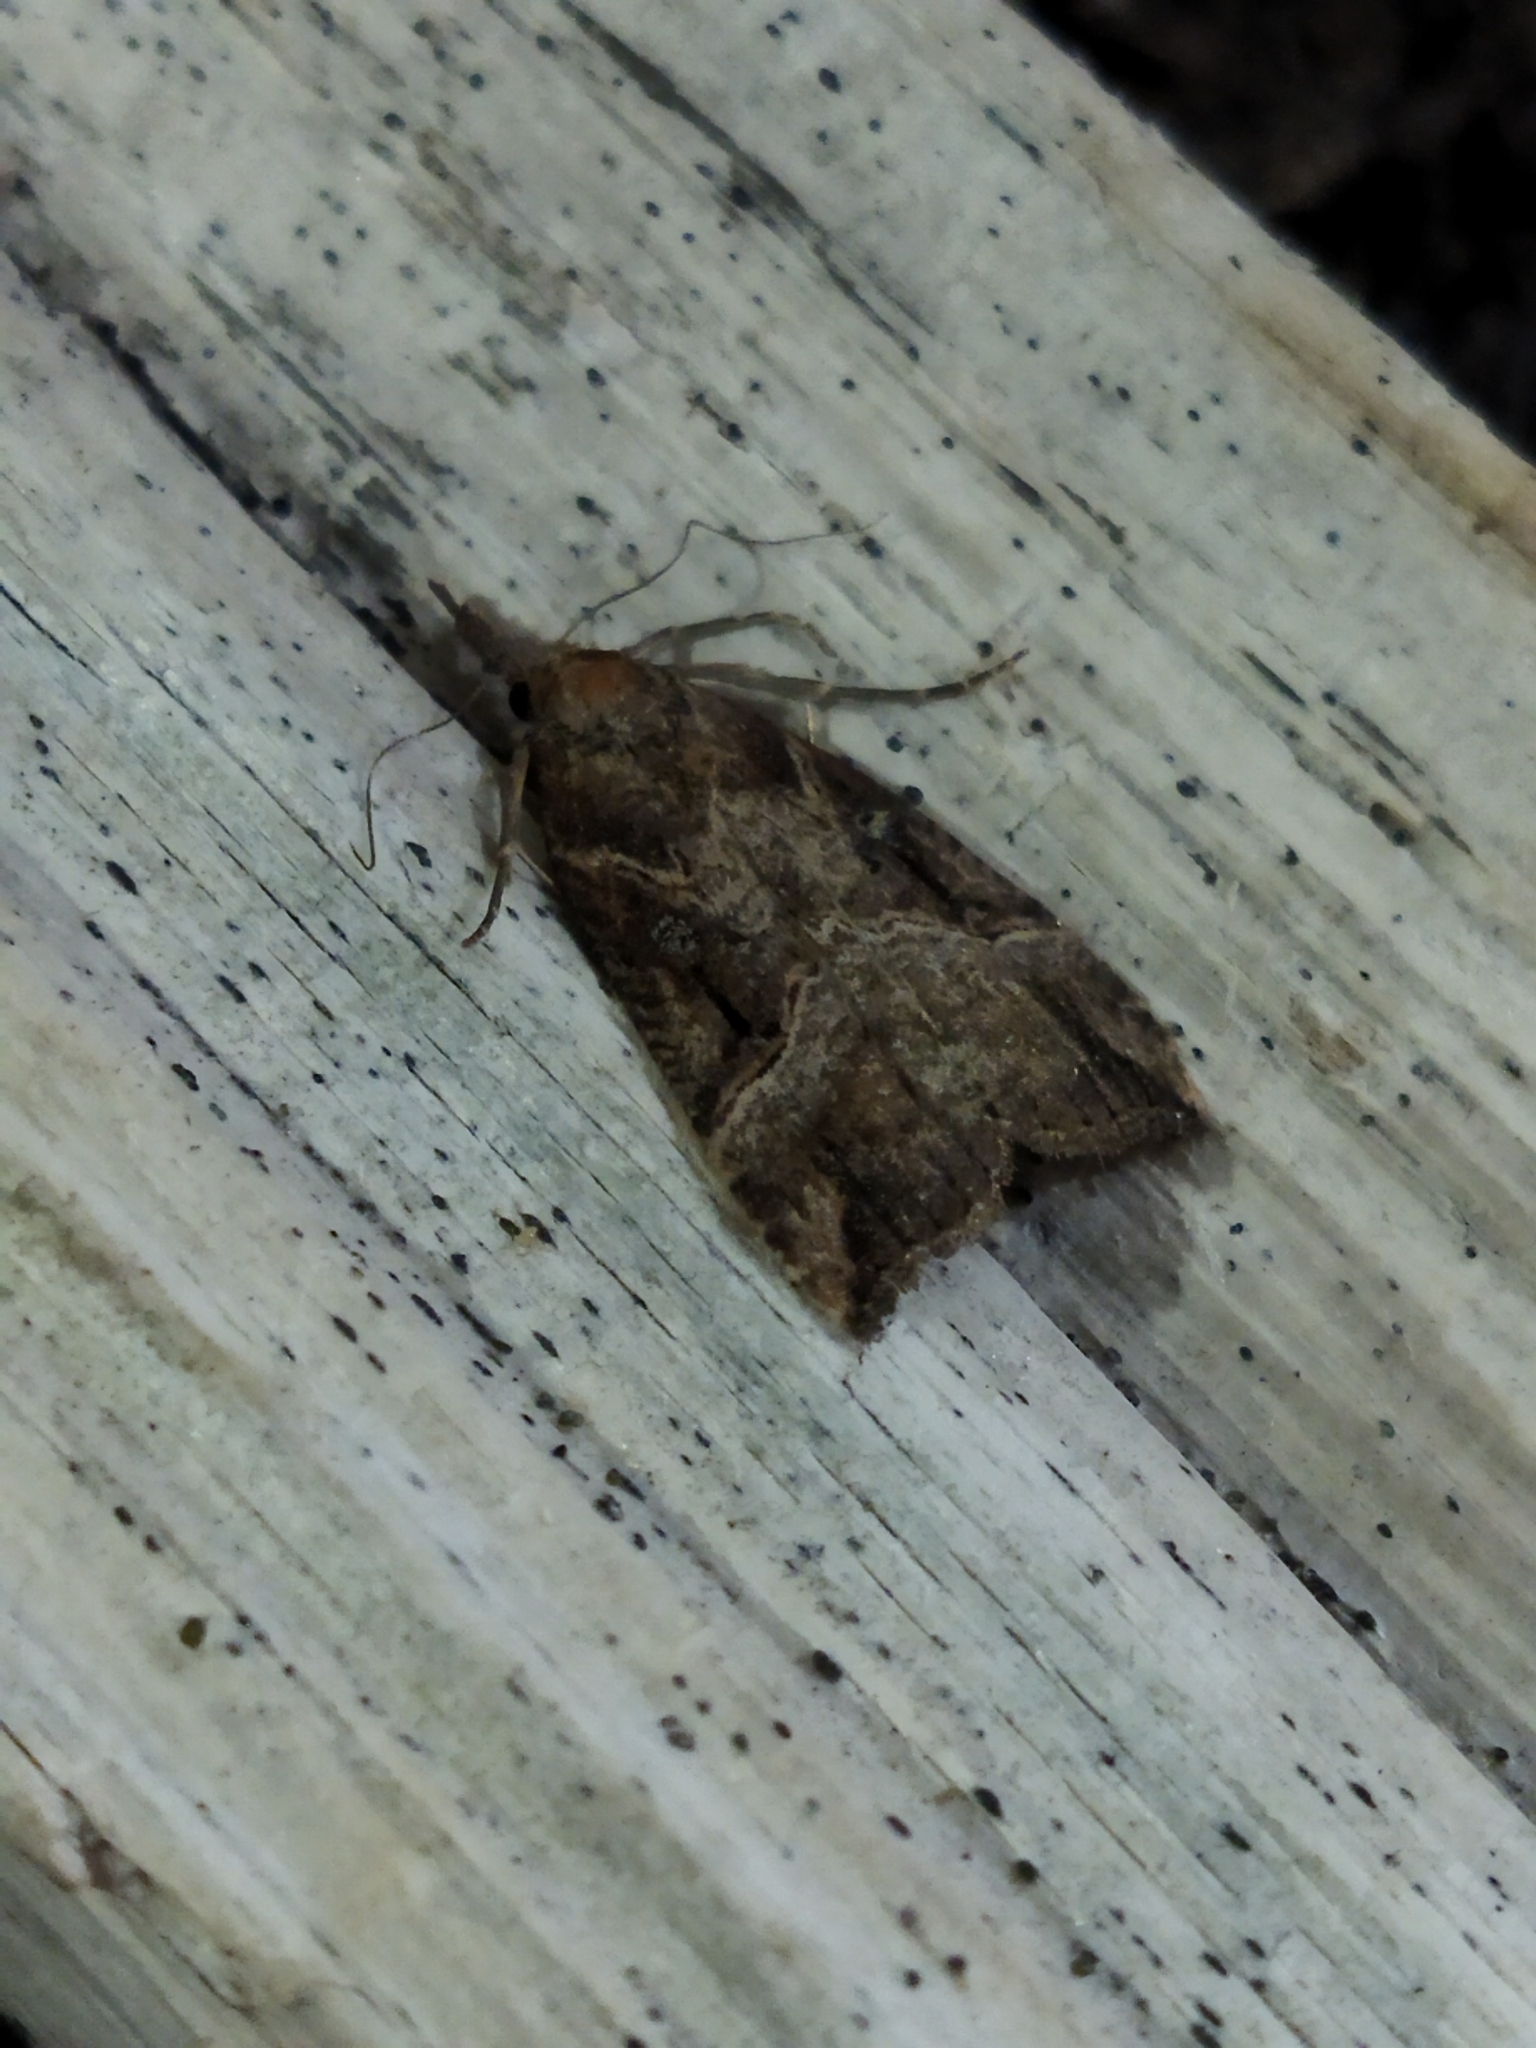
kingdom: Animalia
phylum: Arthropoda
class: Insecta
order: Lepidoptera
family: Erebidae
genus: Hypena
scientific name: Hypena rostralis
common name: Buttoned snout
